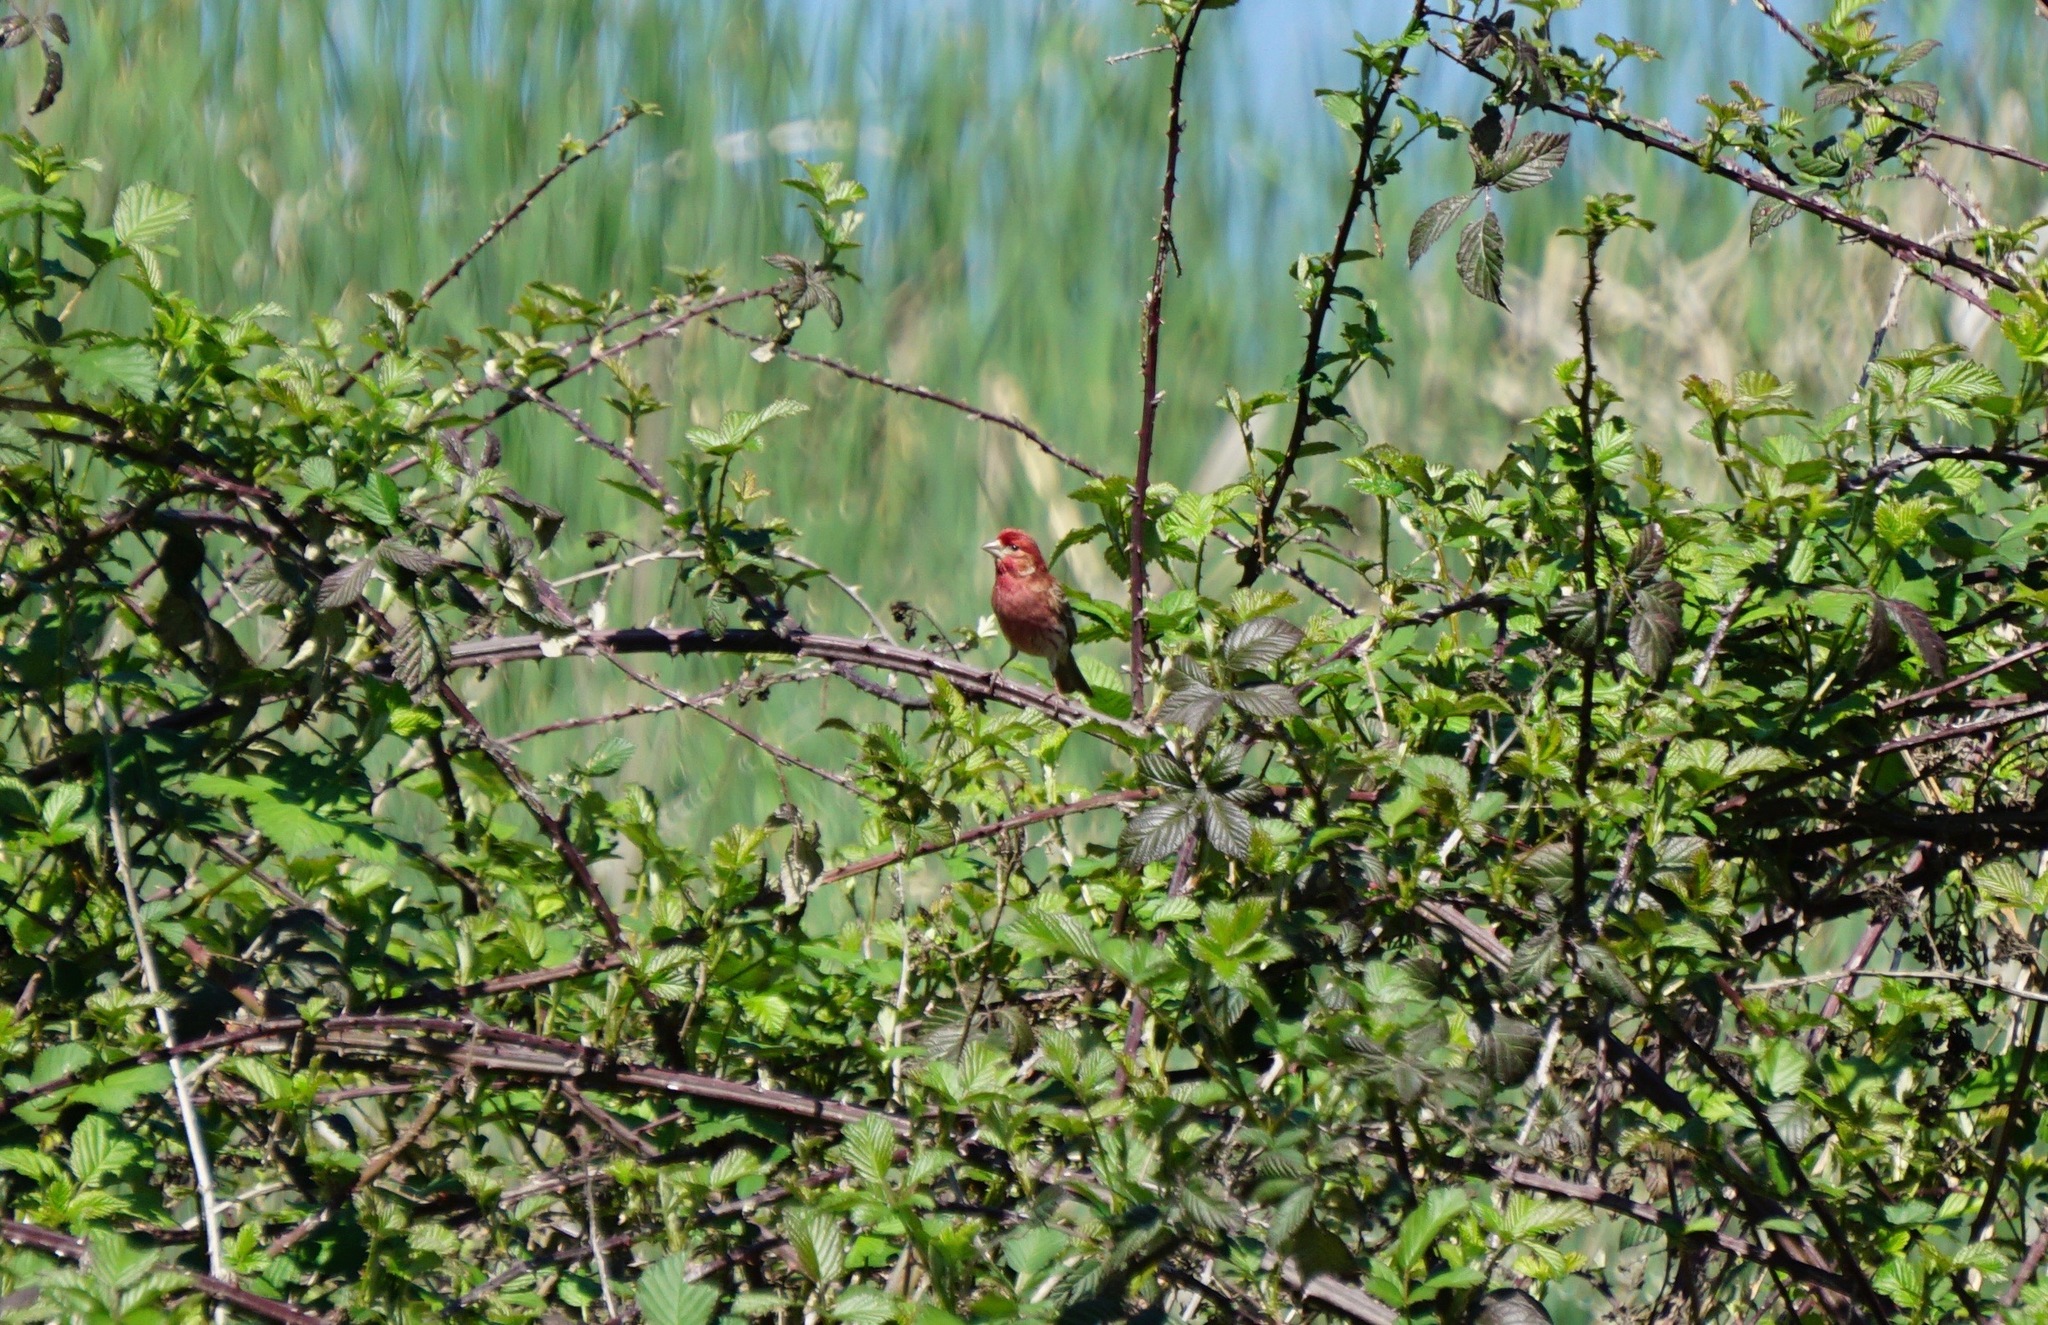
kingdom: Animalia
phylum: Chordata
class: Aves
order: Passeriformes
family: Fringillidae
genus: Haemorhous
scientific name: Haemorhous mexicanus
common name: House finch
